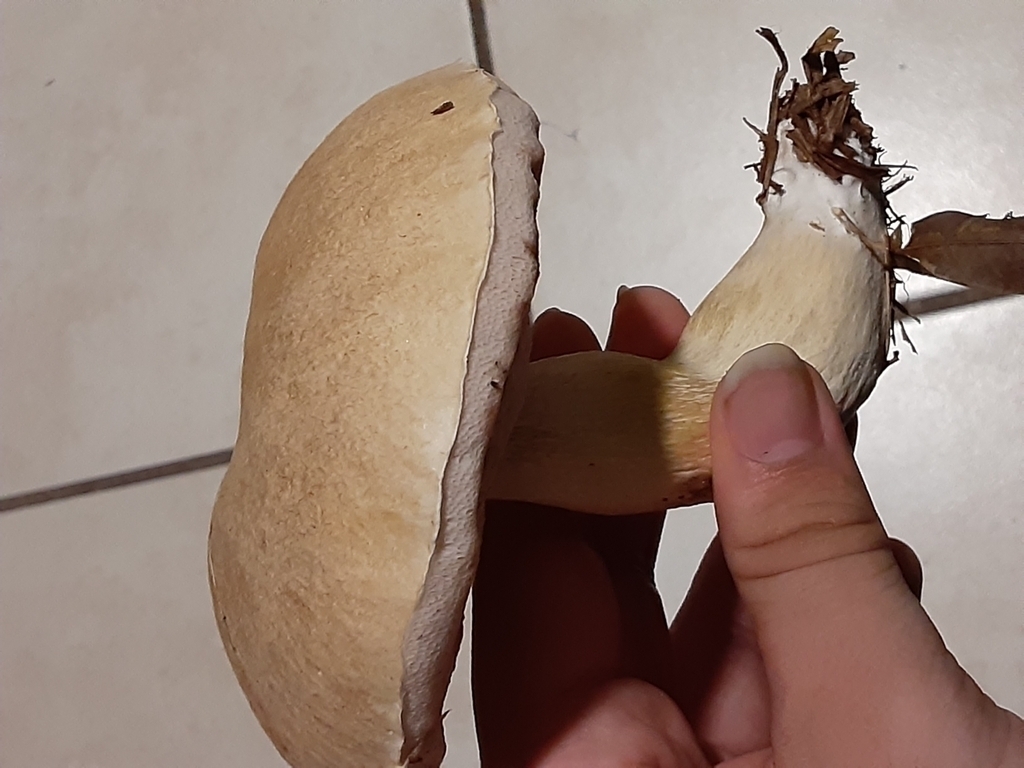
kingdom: Fungi
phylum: Basidiomycota
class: Agaricomycetes
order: Boletales
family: Boletaceae
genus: Tylopilus
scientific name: Tylopilus rhoadsiae
